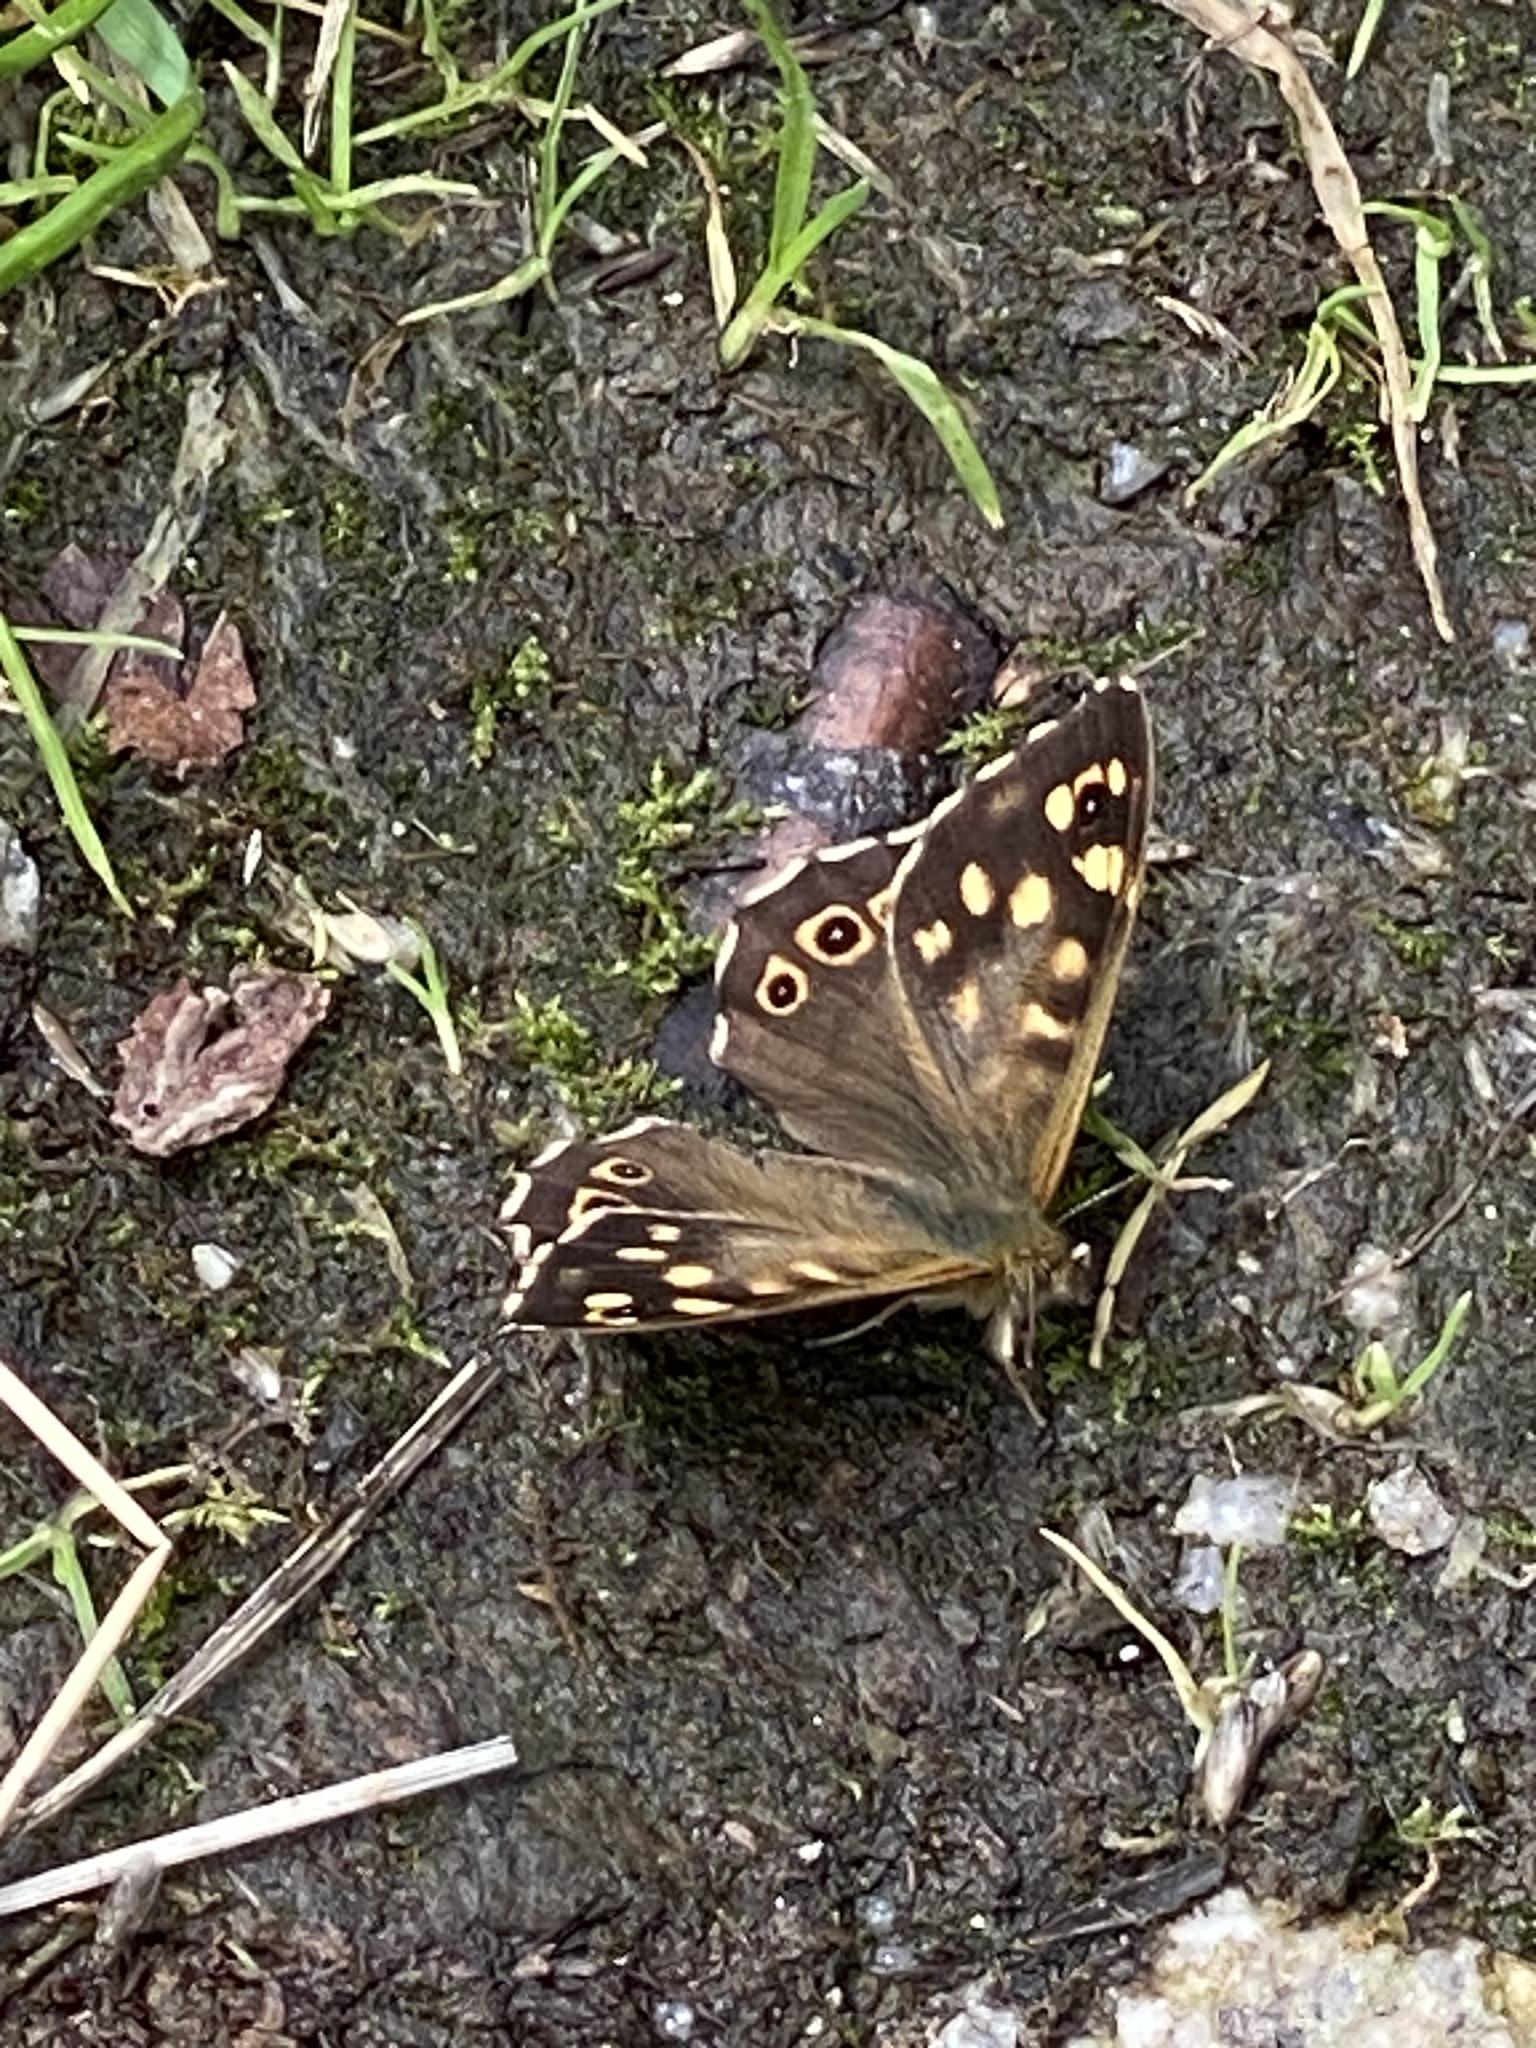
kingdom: Animalia
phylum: Arthropoda
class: Insecta
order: Lepidoptera
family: Nymphalidae
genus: Pararge
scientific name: Pararge aegeria
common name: Speckled wood
